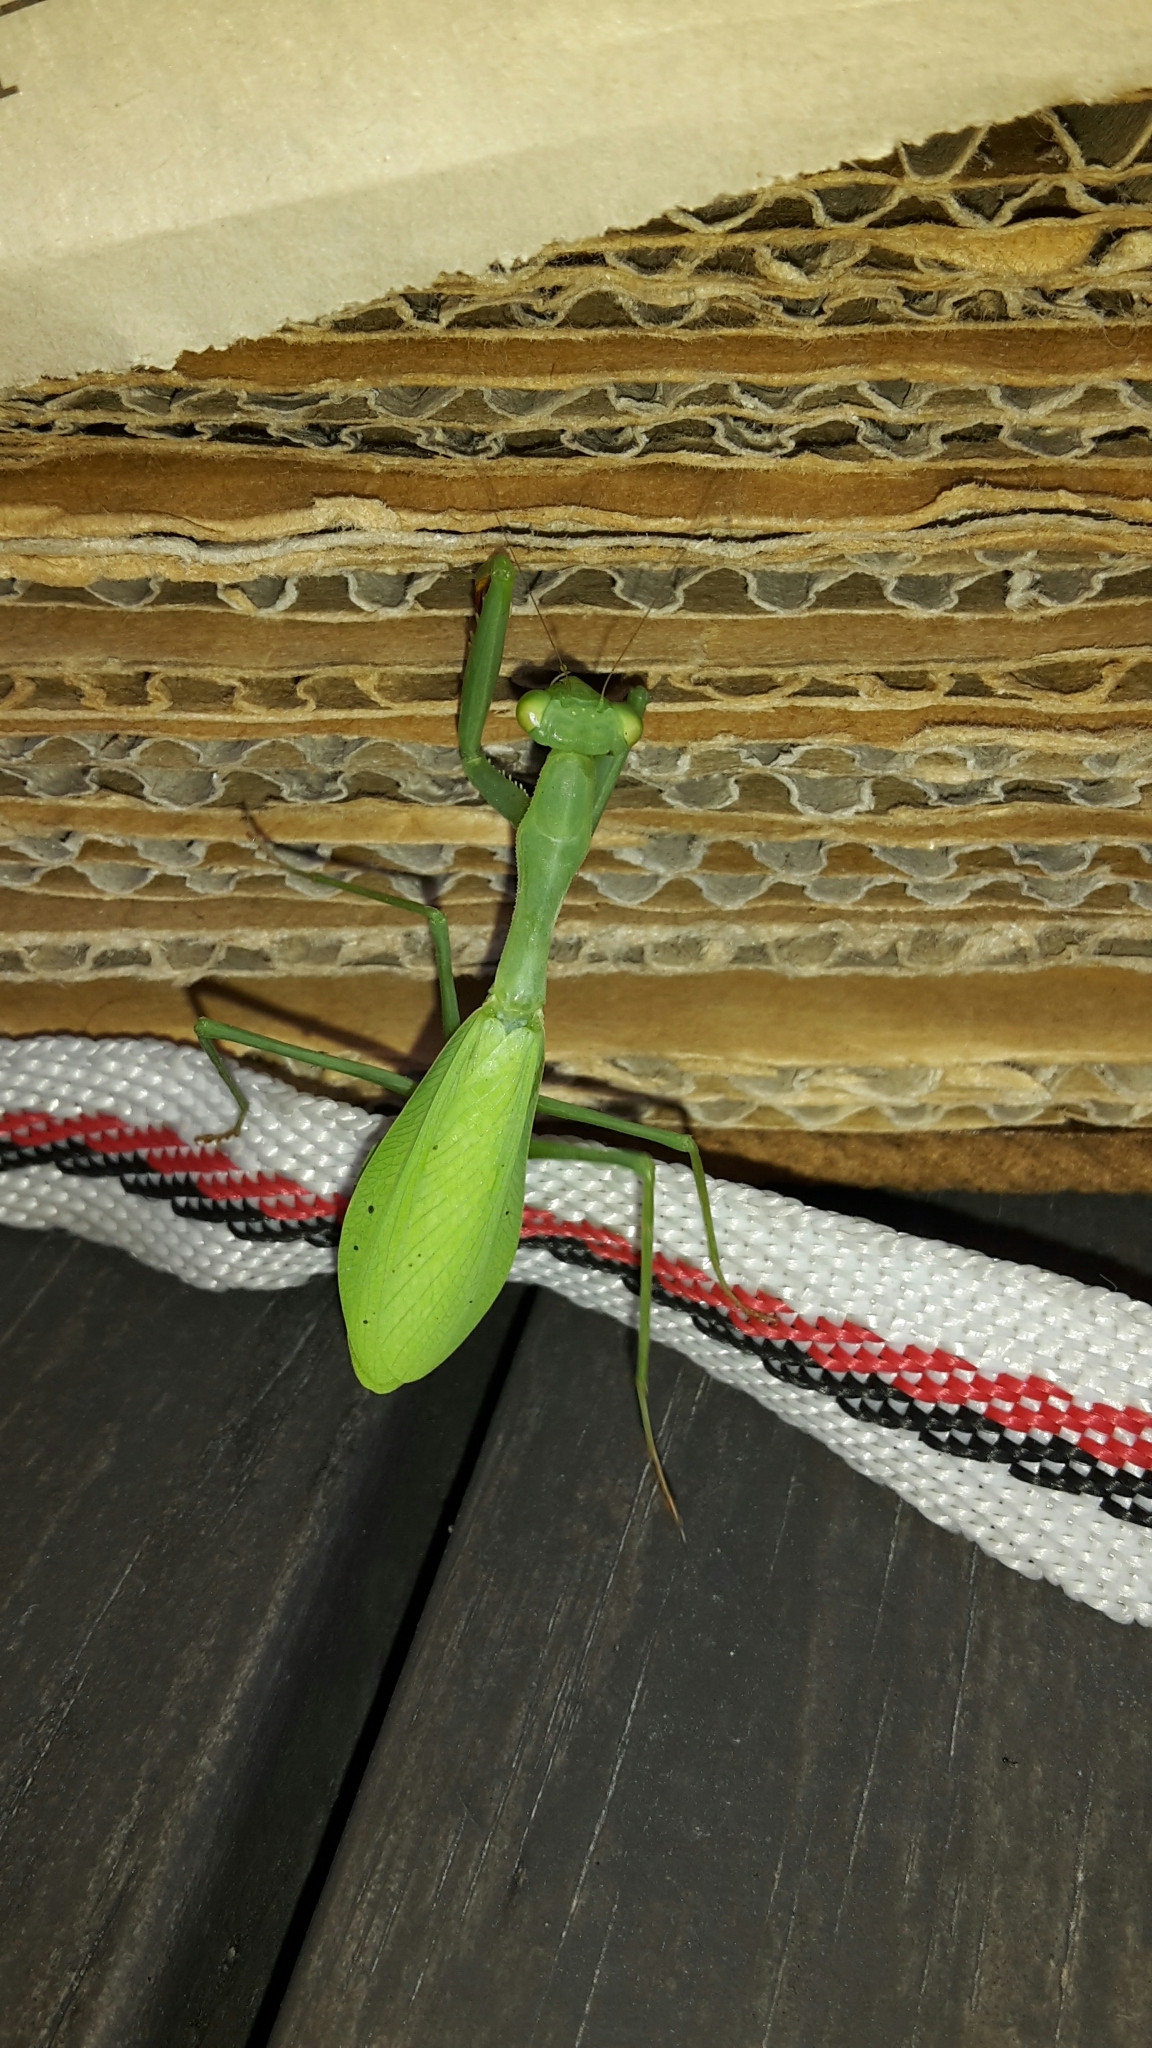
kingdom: Animalia
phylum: Arthropoda
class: Insecta
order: Mantodea
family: Miomantidae
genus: Miomantis
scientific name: Miomantis caffra
